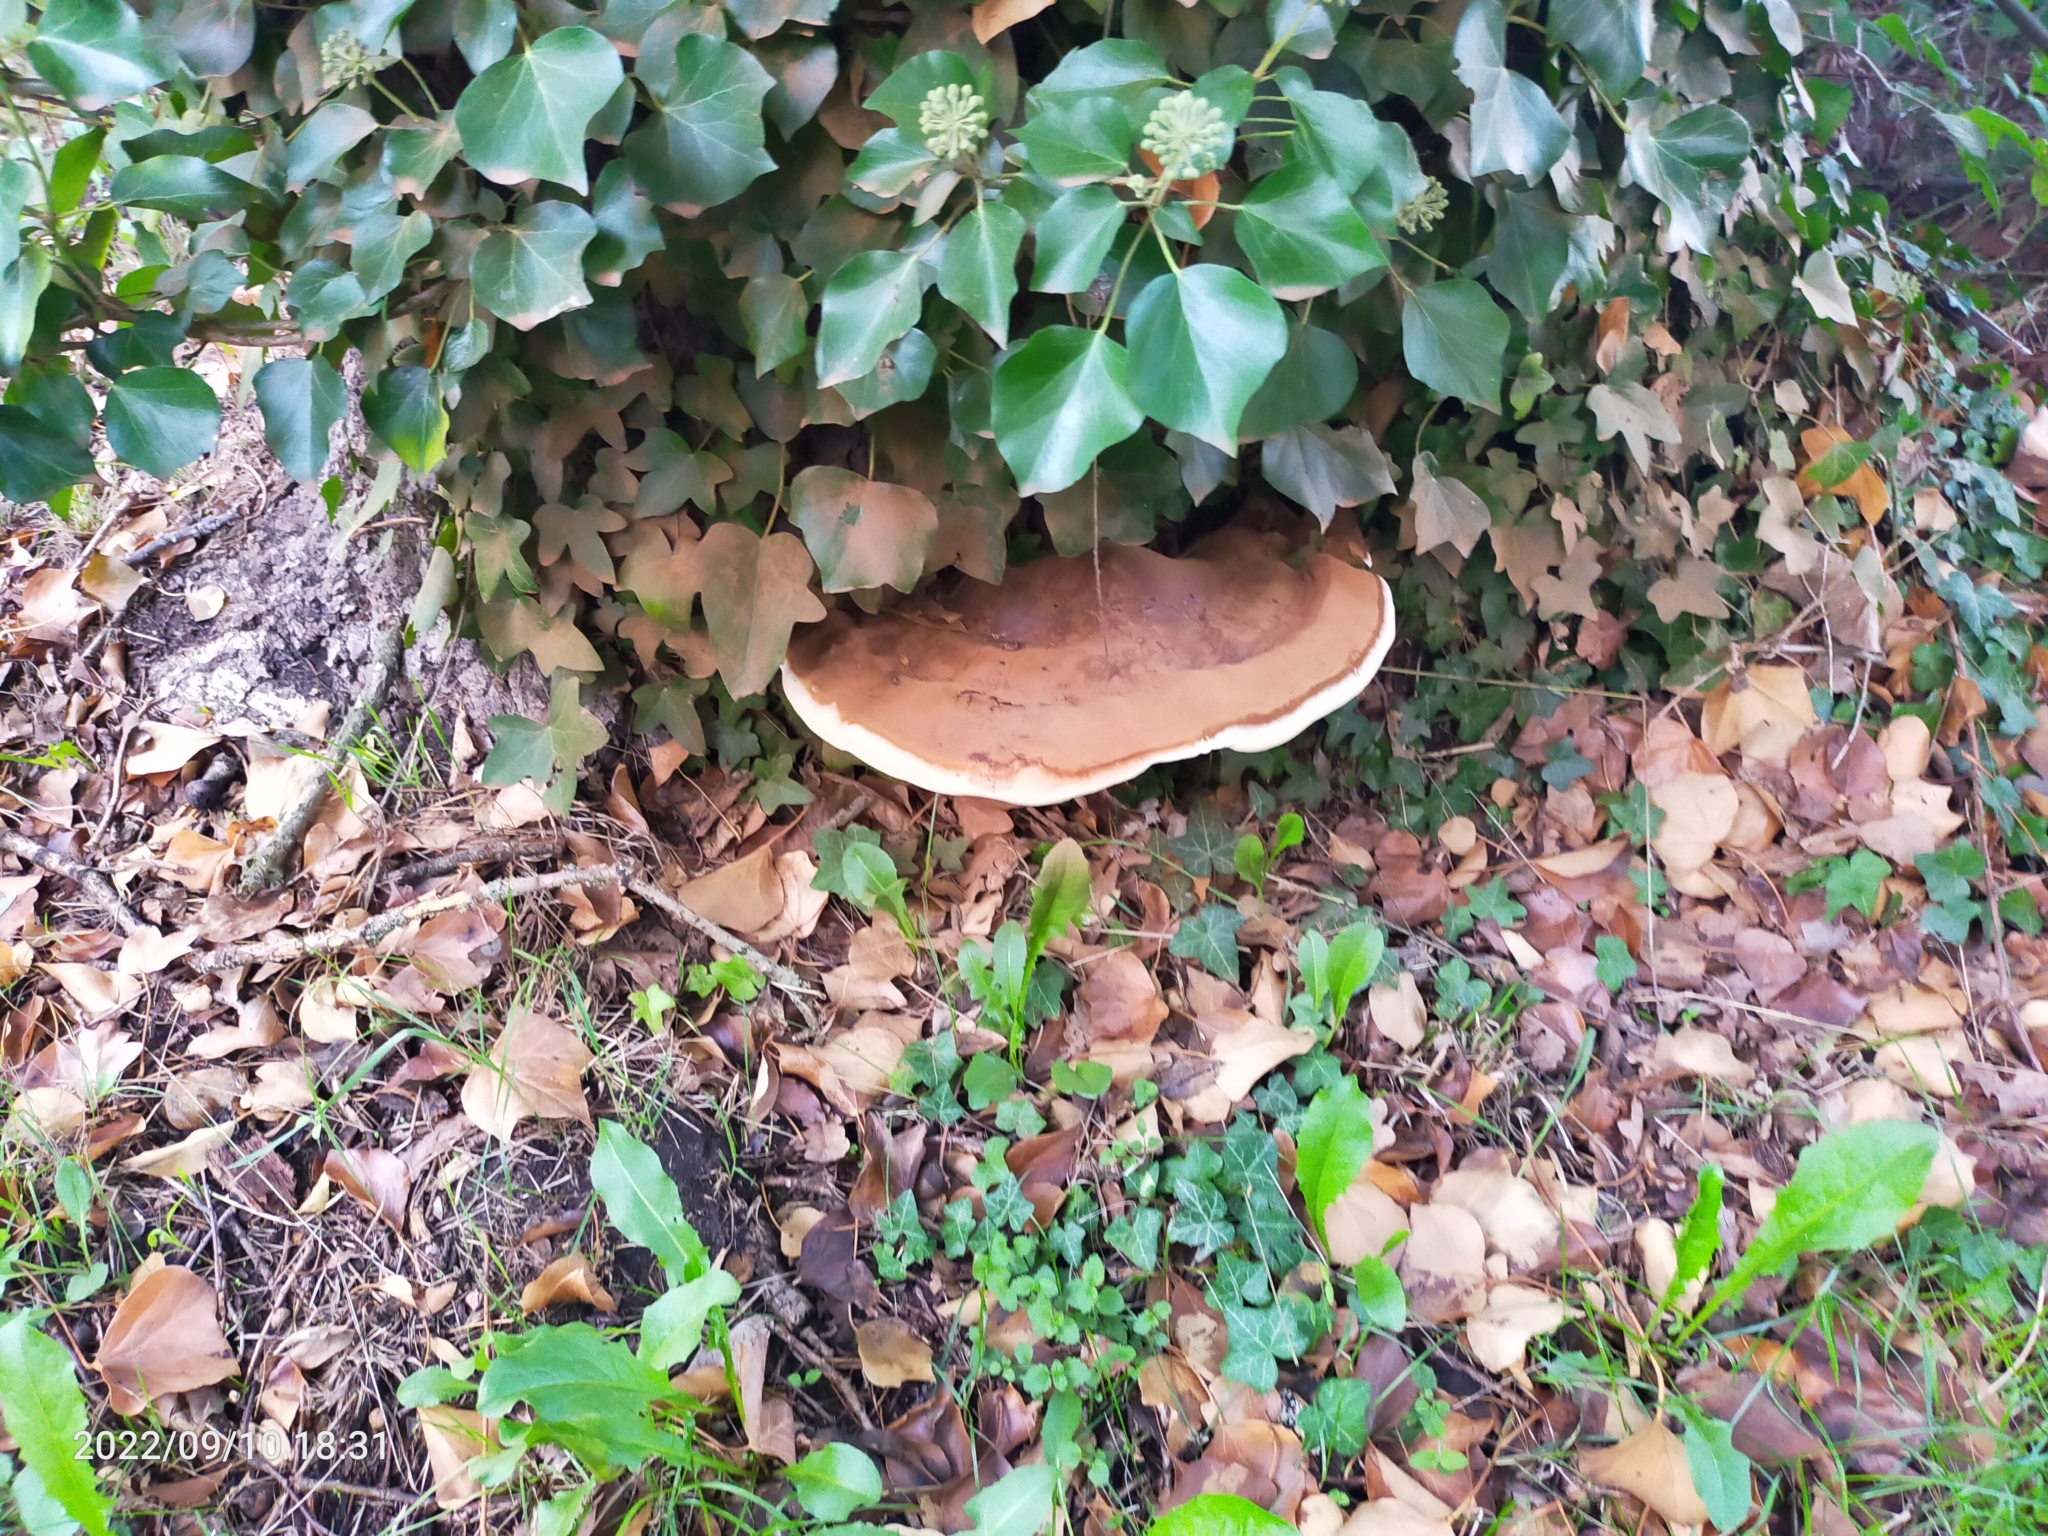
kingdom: Fungi
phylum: Basidiomycota
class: Agaricomycetes
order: Polyporales
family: Polyporaceae
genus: Ganoderma
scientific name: Ganoderma
